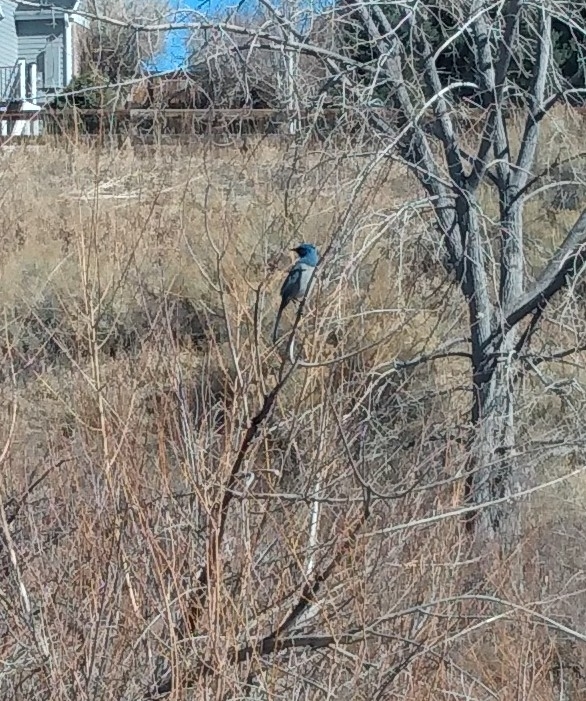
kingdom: Animalia
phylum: Chordata
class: Aves
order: Passeriformes
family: Corvidae
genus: Aphelocoma
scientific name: Aphelocoma woodhouseii
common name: Woodhouse's scrub-jay
